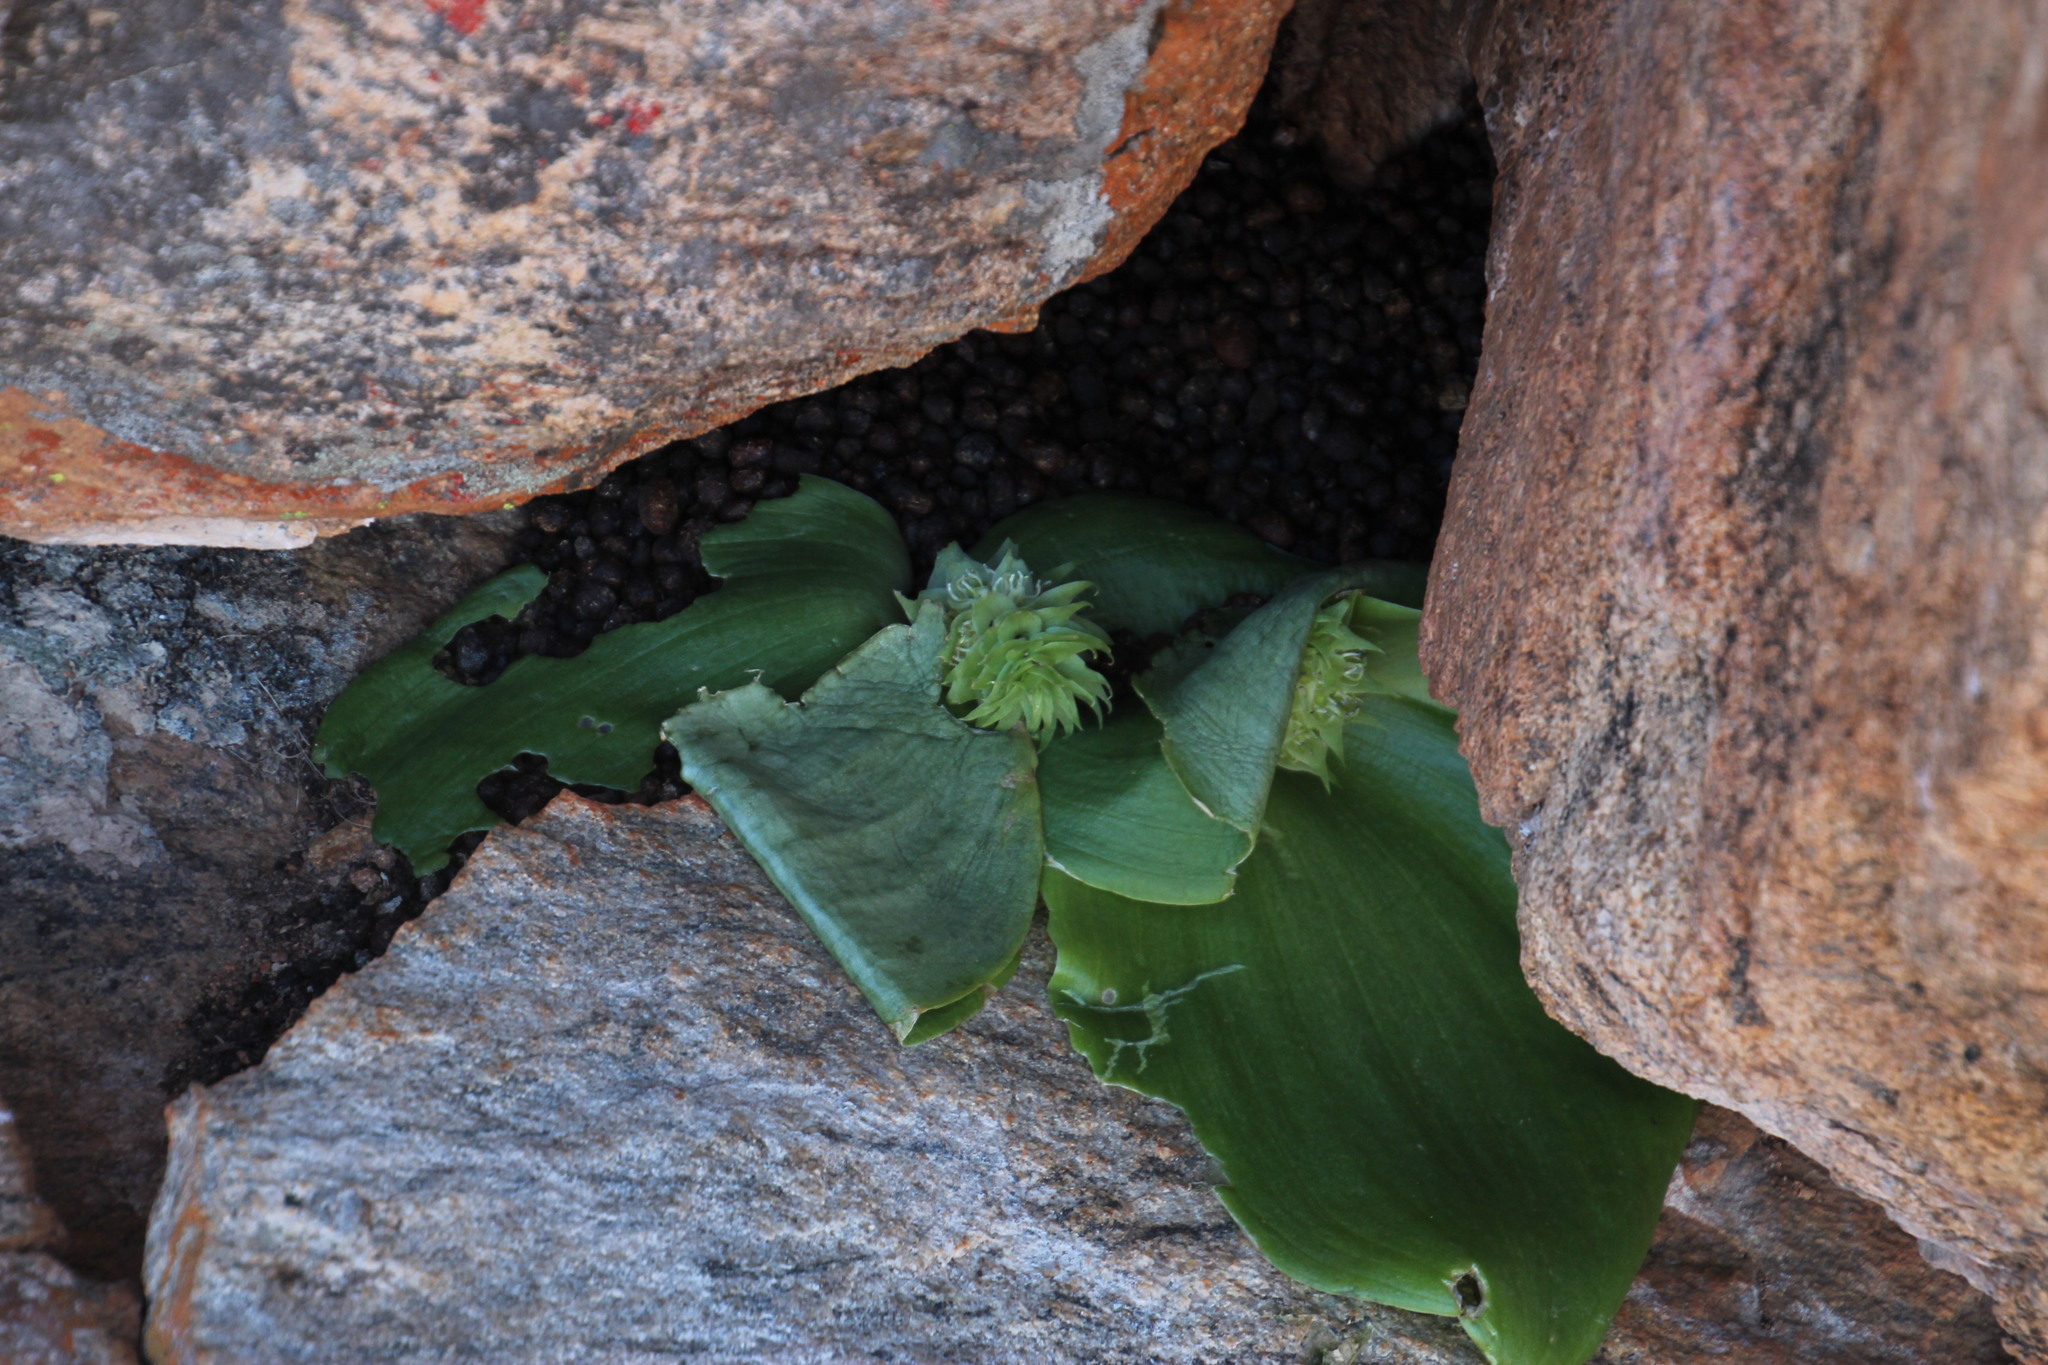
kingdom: Plantae
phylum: Tracheophyta
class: Liliopsida
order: Asparagales
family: Asparagaceae
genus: Massonia
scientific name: Massonia bifolia
